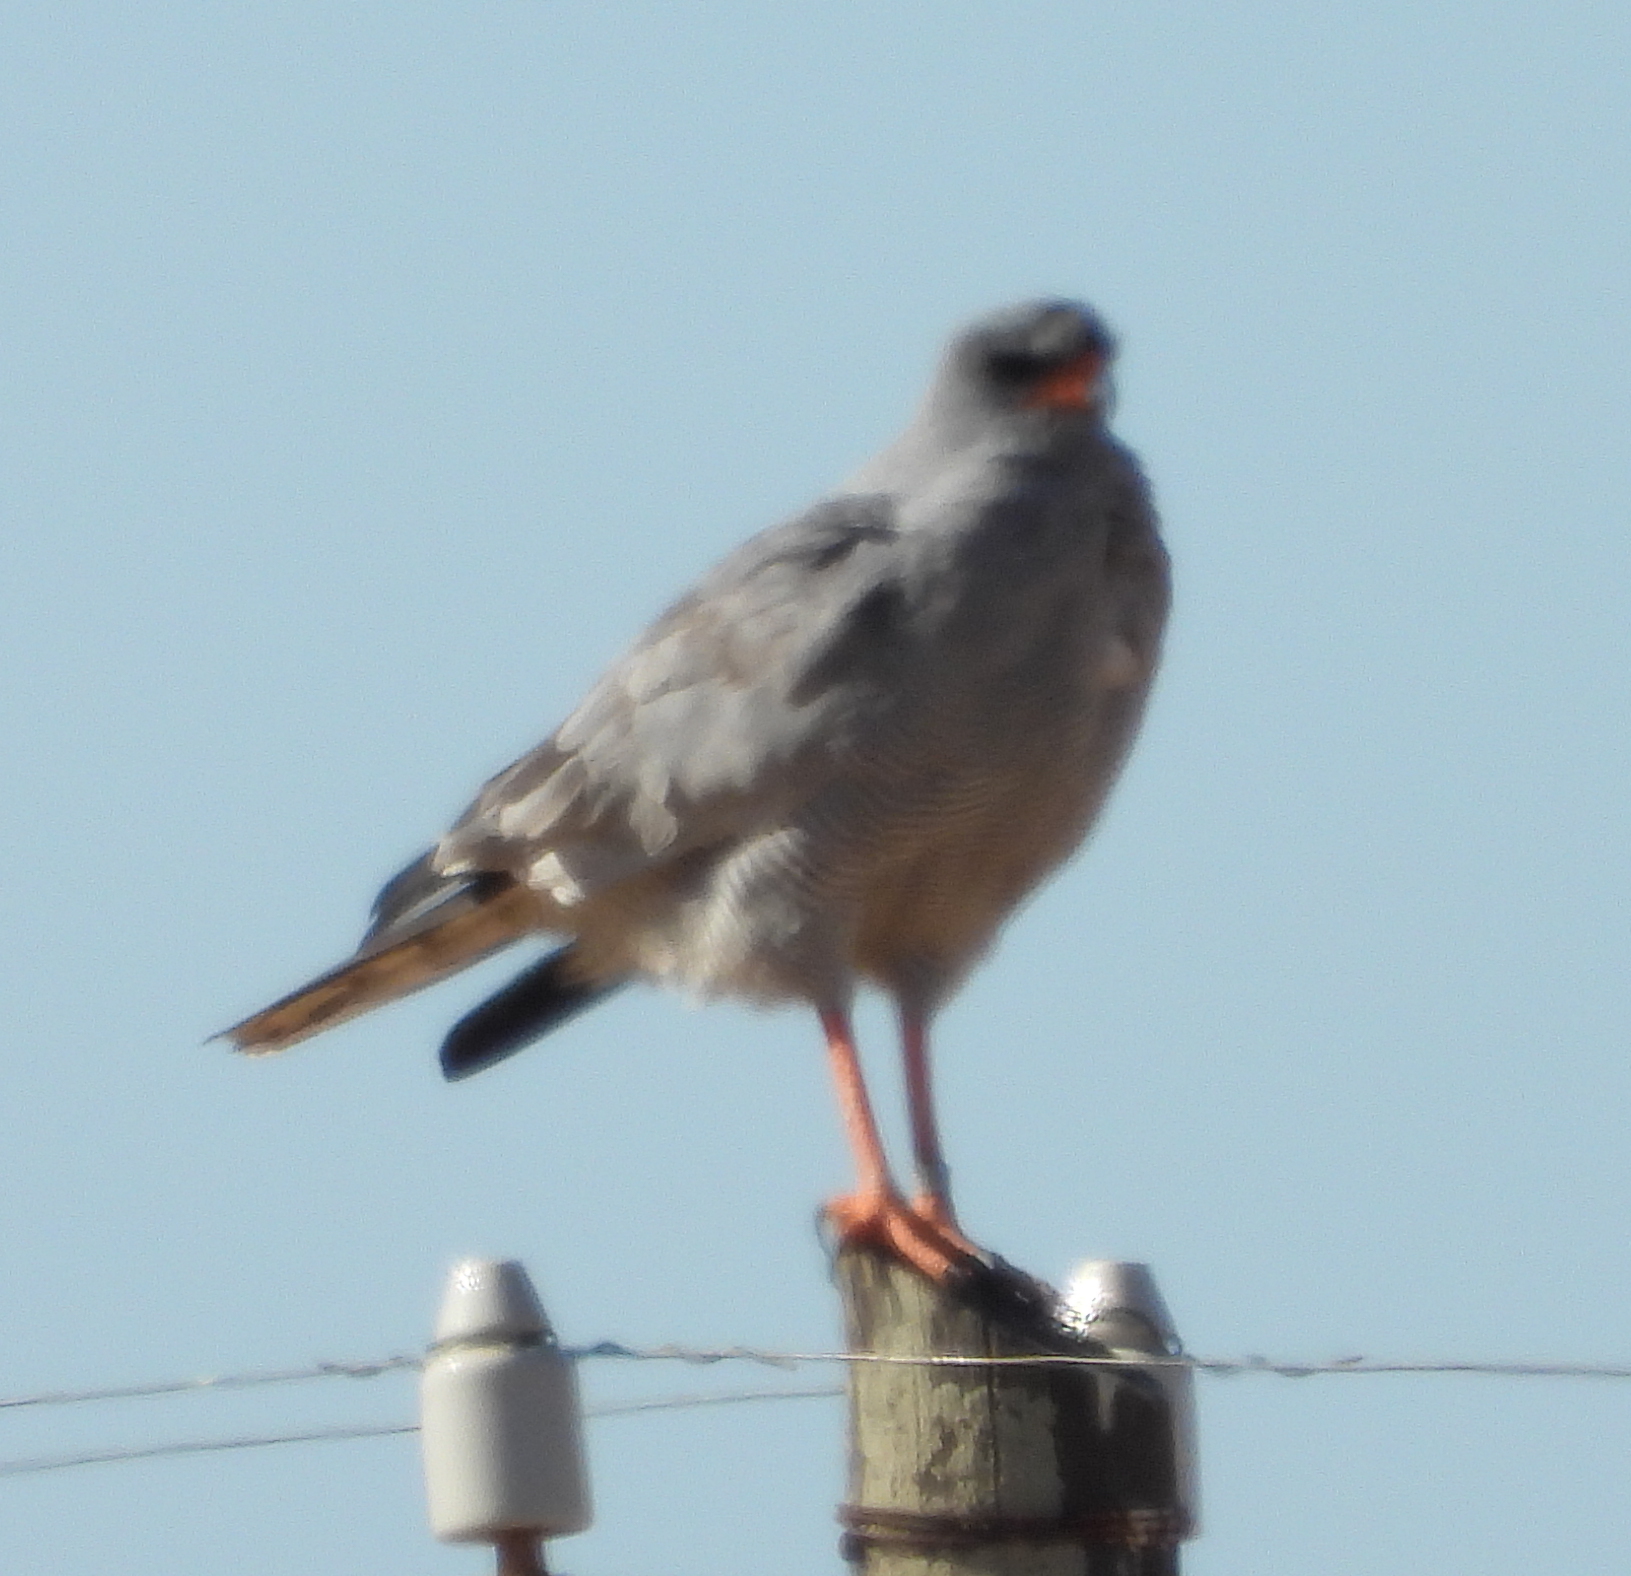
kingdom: Animalia
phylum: Chordata
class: Aves
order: Accipitriformes
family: Accipitridae
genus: Melierax
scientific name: Melierax canorus
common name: Pale chanting-goshawk
